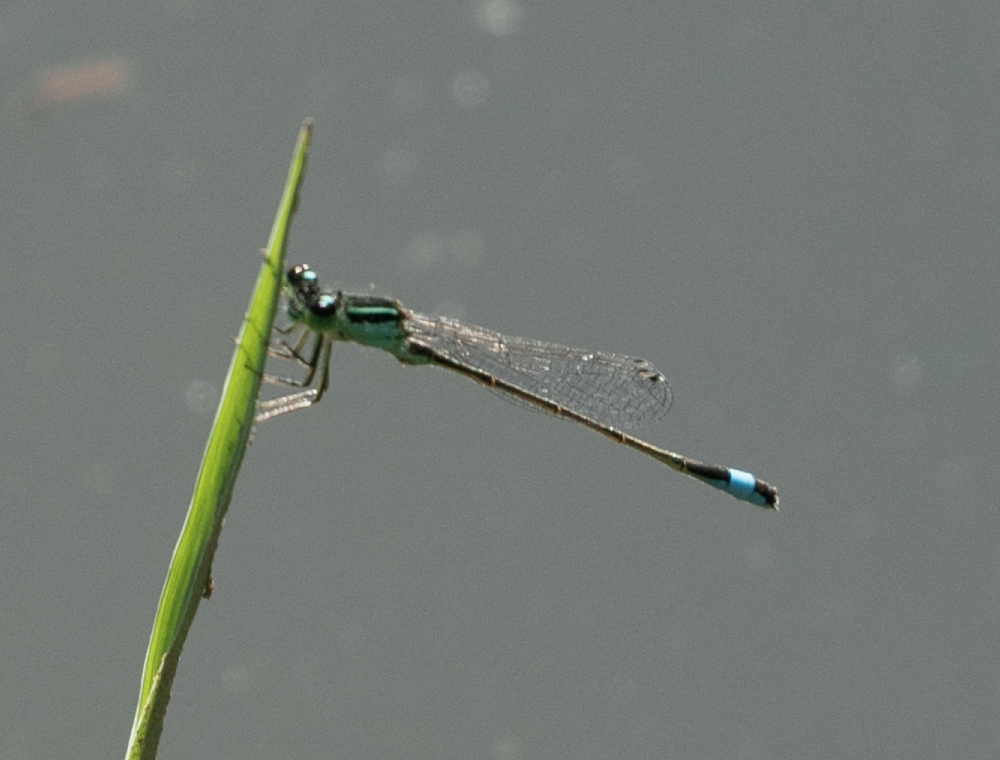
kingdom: Animalia
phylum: Arthropoda
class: Insecta
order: Odonata
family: Coenagrionidae
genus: Ischnura
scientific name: Ischnura elegans
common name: Blue-tailed damselfly
